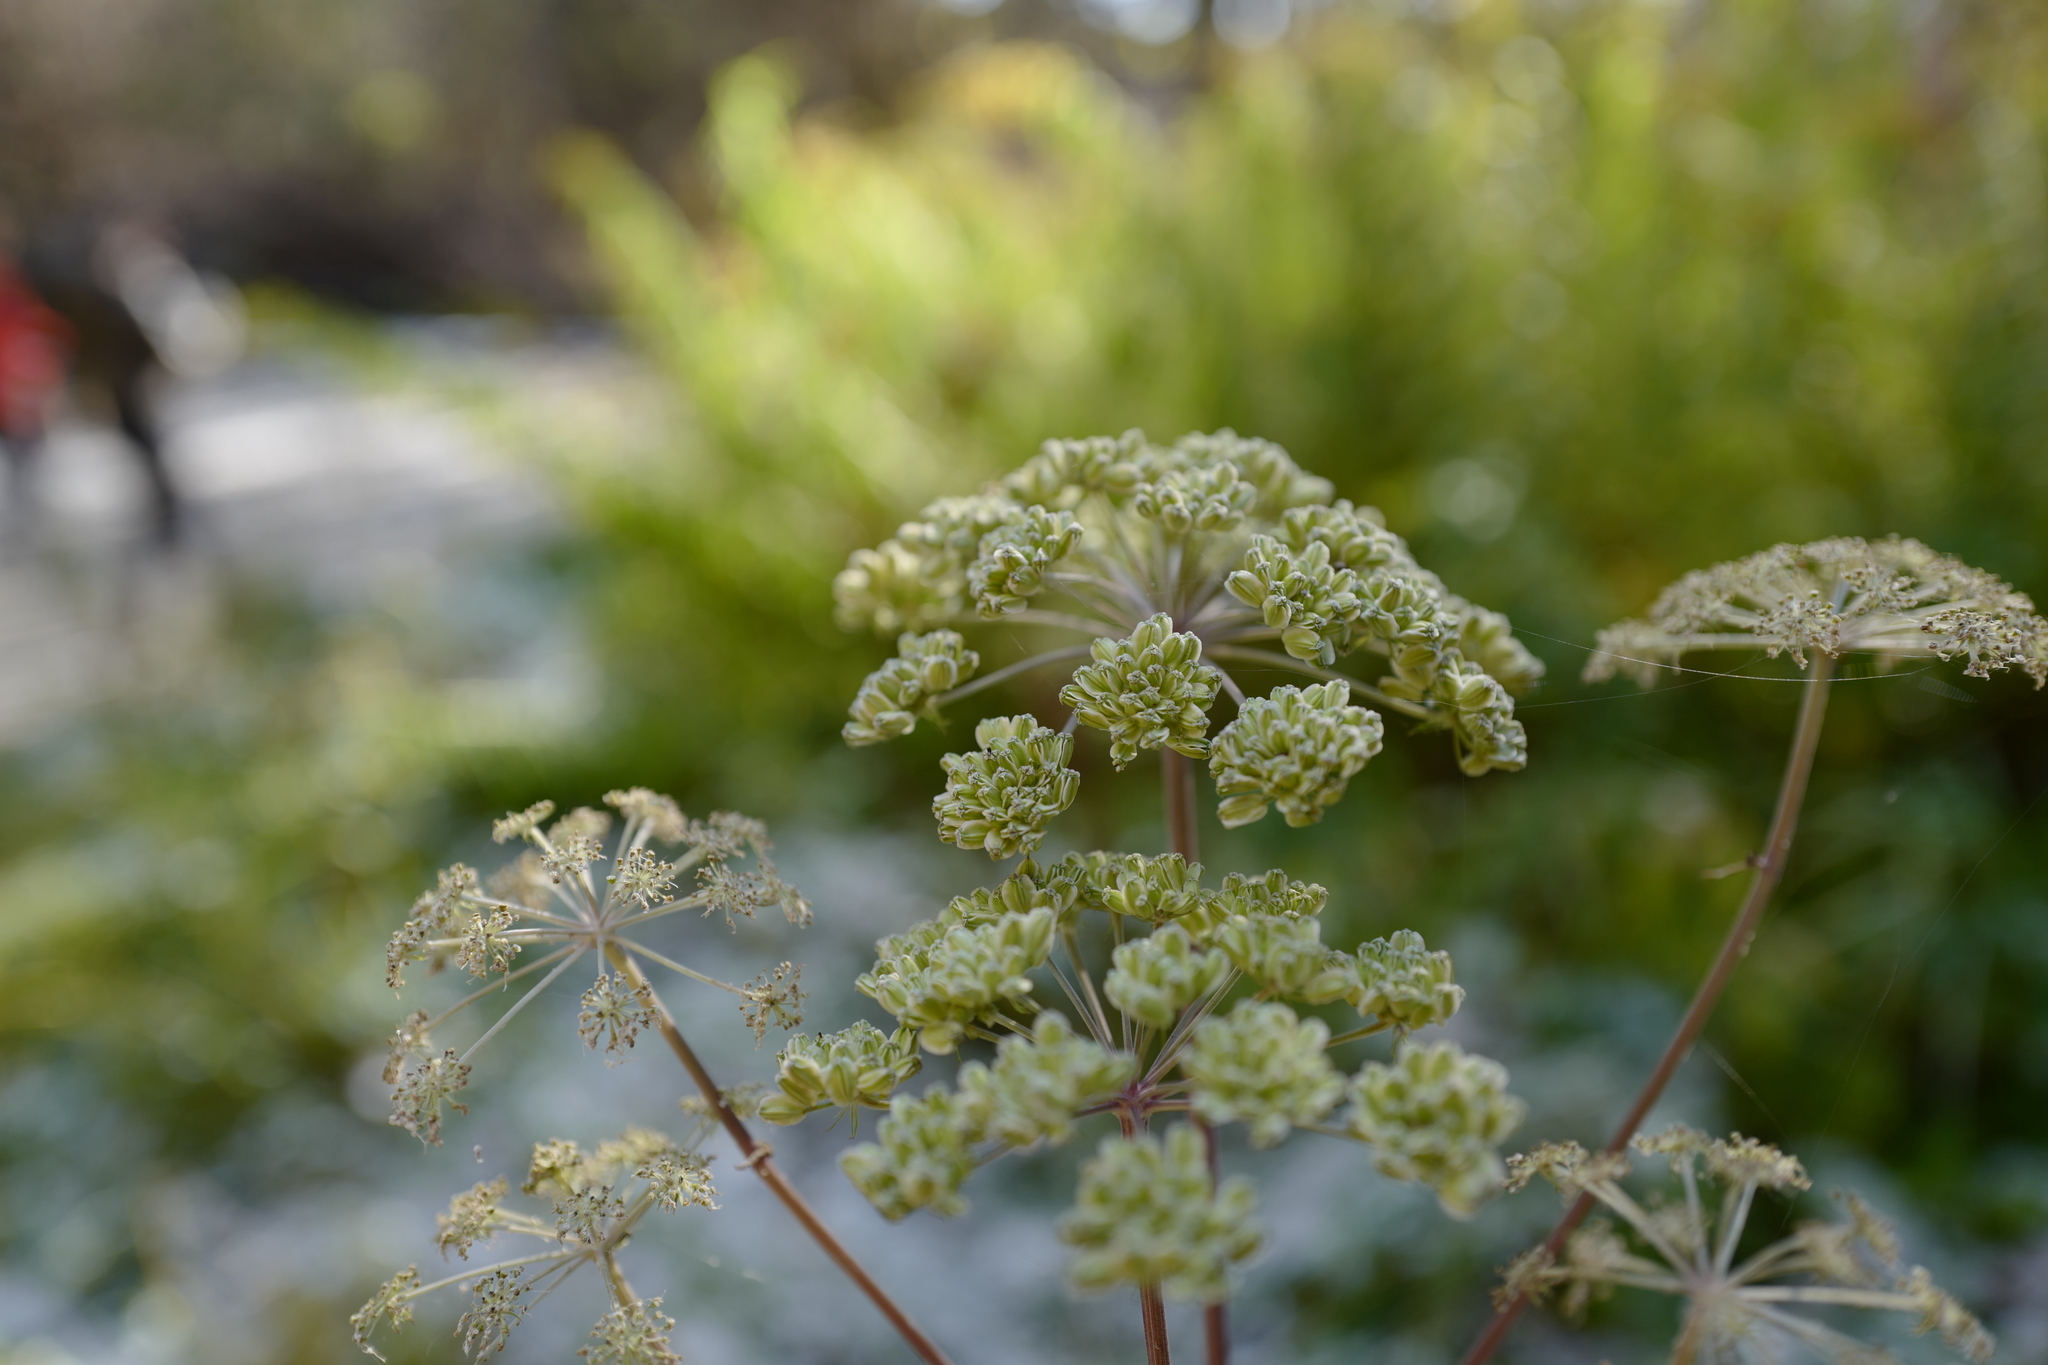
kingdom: Plantae
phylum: Tracheophyta
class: Magnoliopsida
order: Apiales
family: Apiaceae
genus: Angelica
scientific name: Angelica sylvestris
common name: Wild angelica
